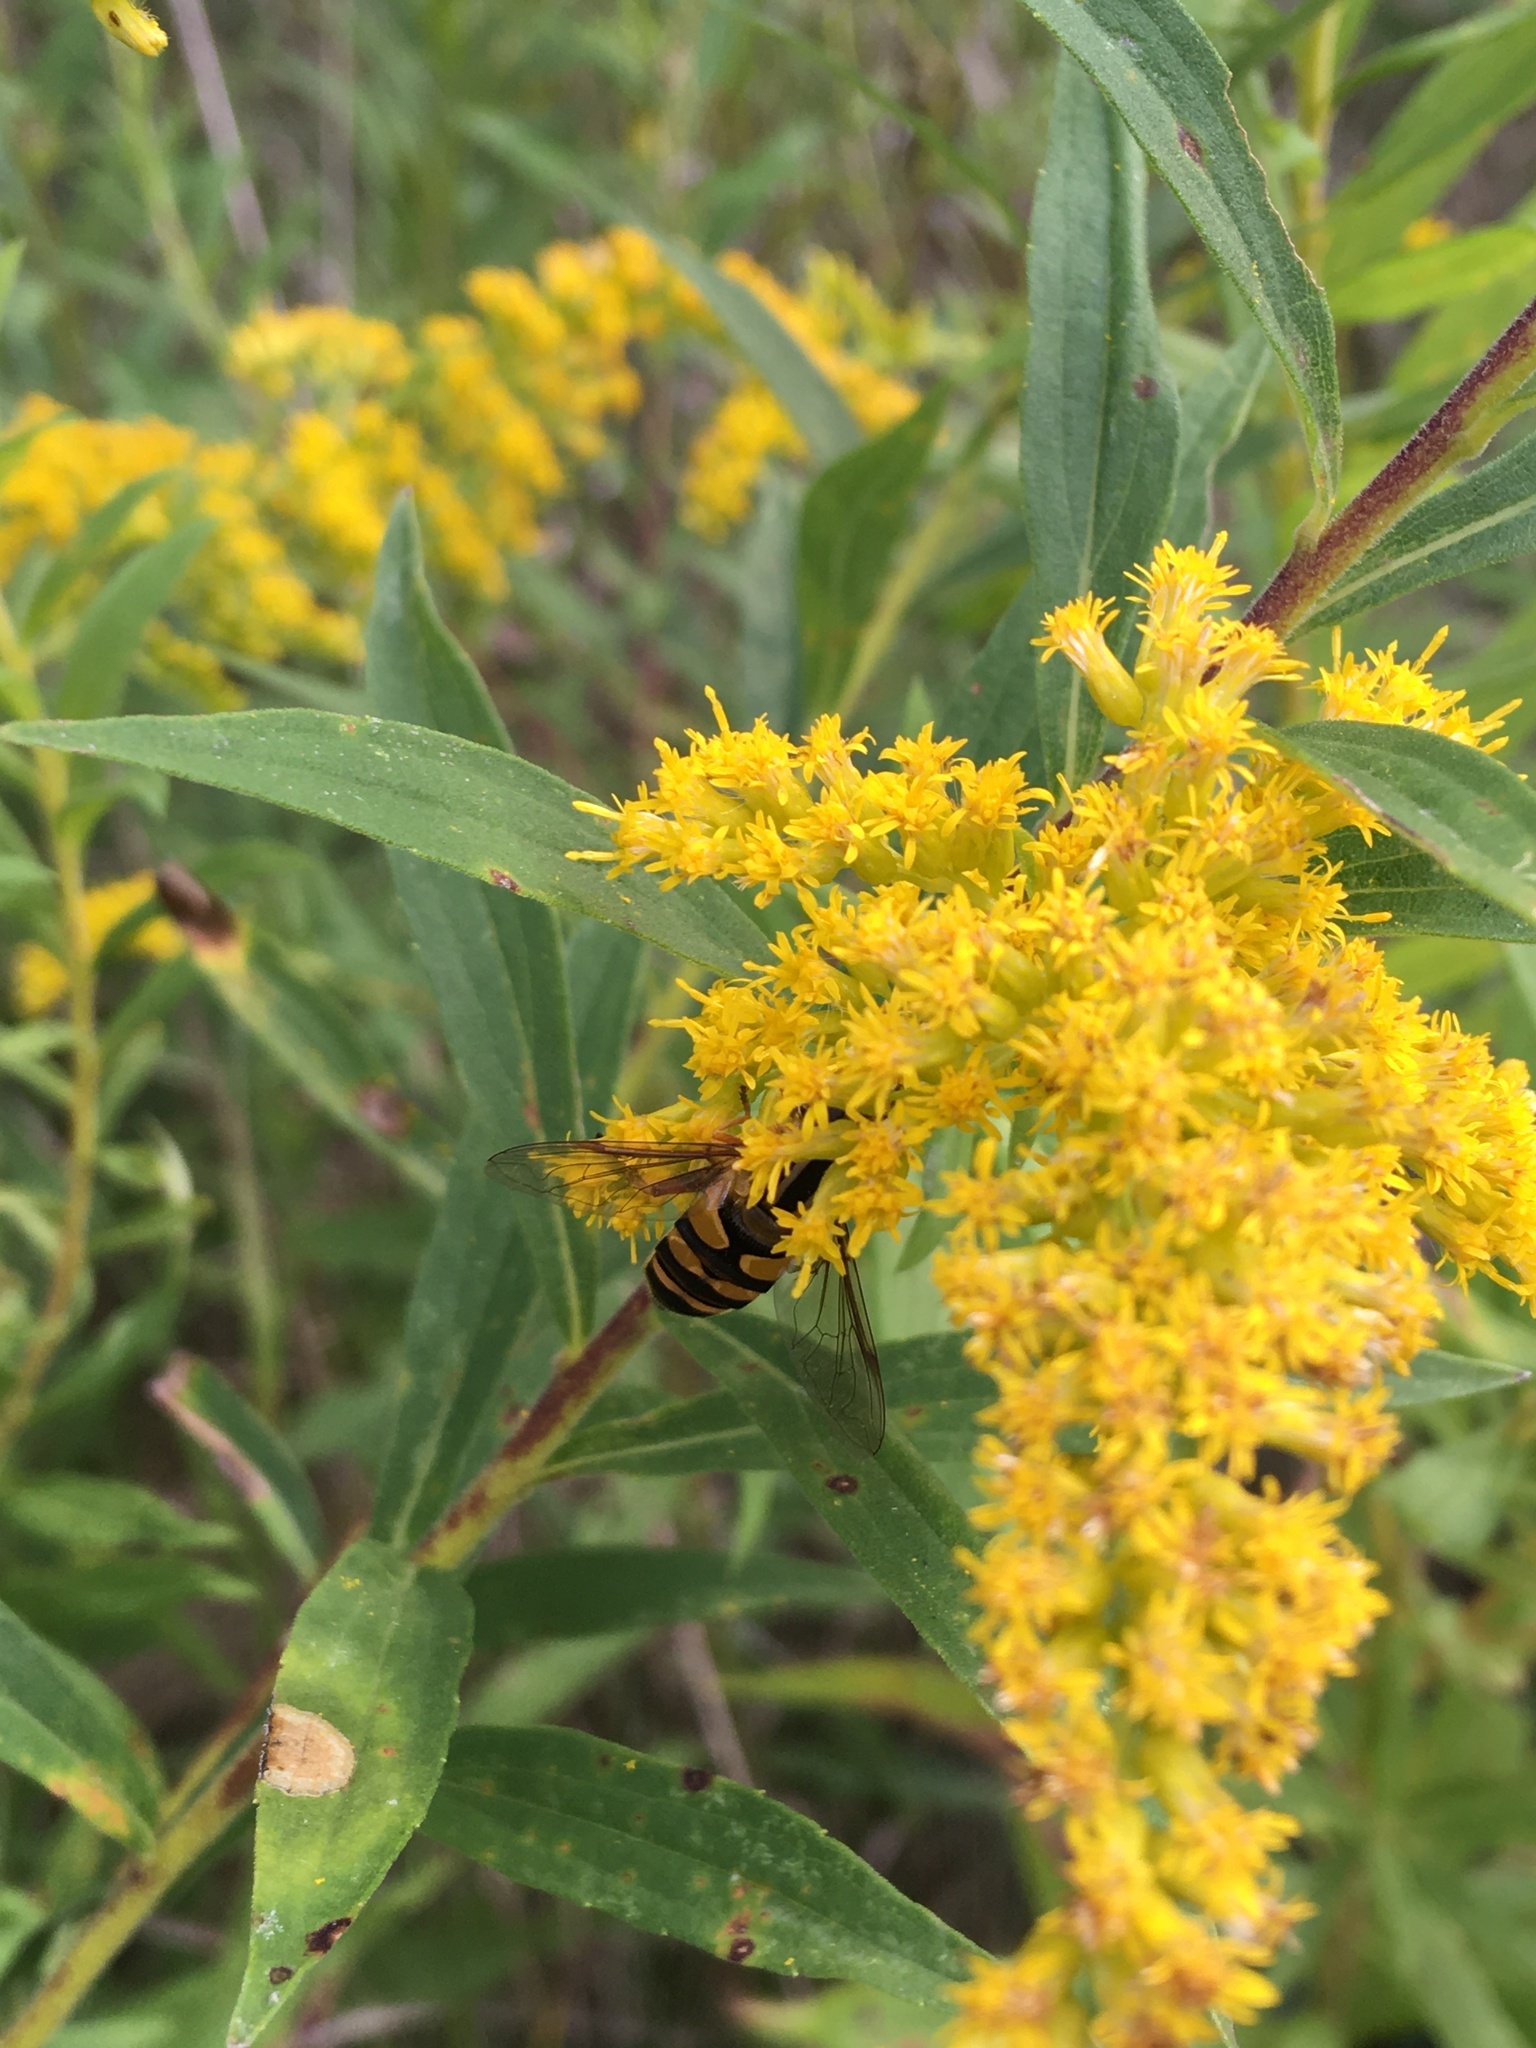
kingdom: Animalia
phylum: Arthropoda
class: Insecta
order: Diptera
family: Syrphidae
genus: Helophilus
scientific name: Helophilus fasciatus
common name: Narrow-headed marsh fly
